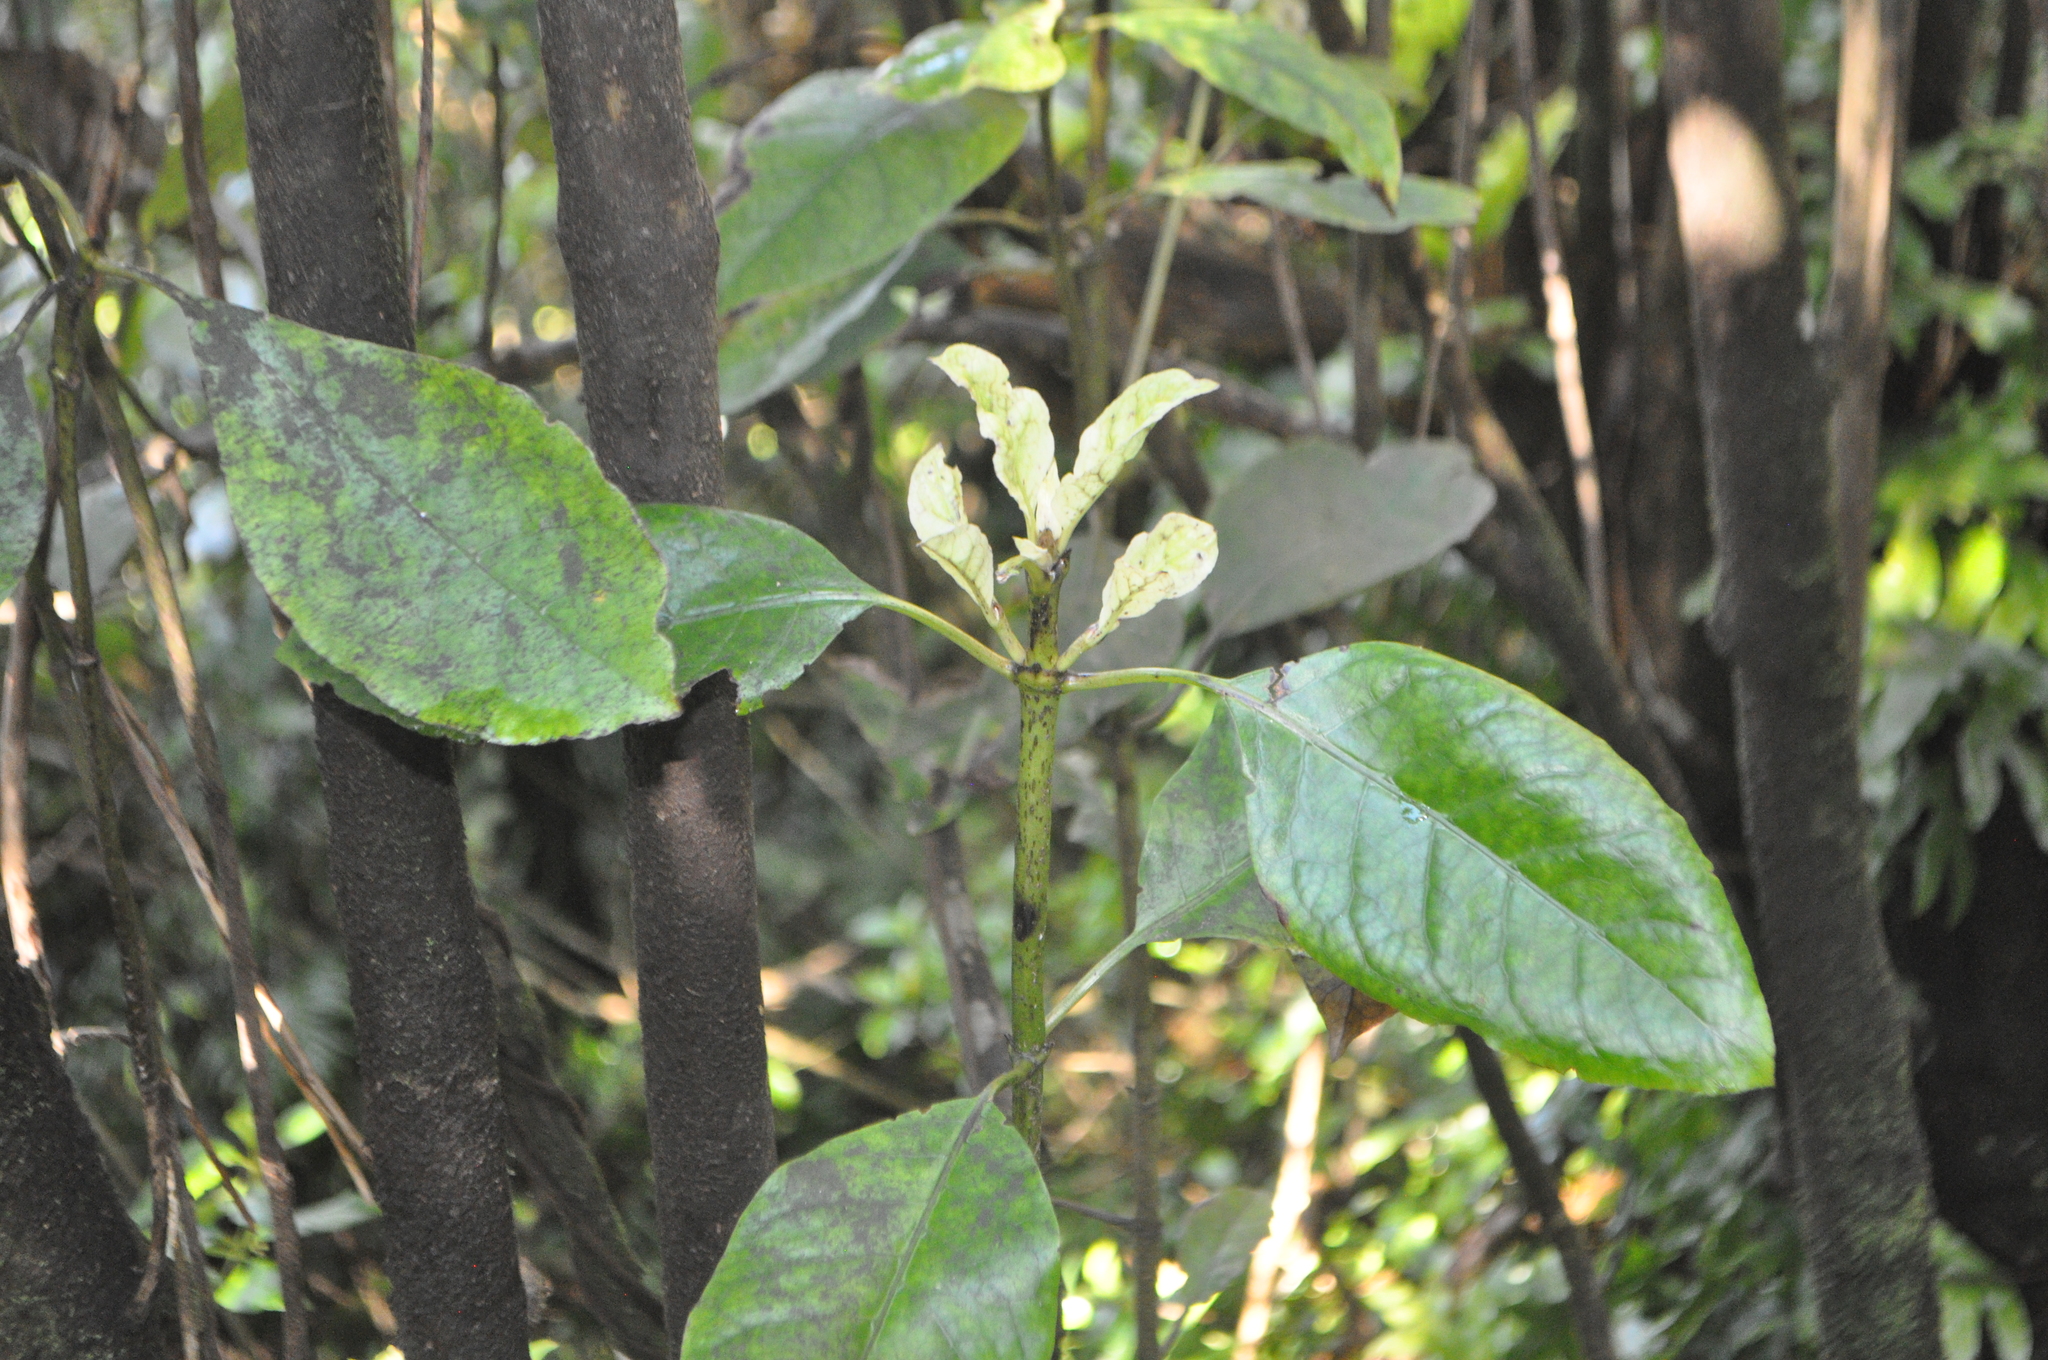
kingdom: Plantae
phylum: Tracheophyta
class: Magnoliopsida
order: Gentianales
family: Rubiaceae
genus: Coprosma
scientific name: Coprosma autumnalis
